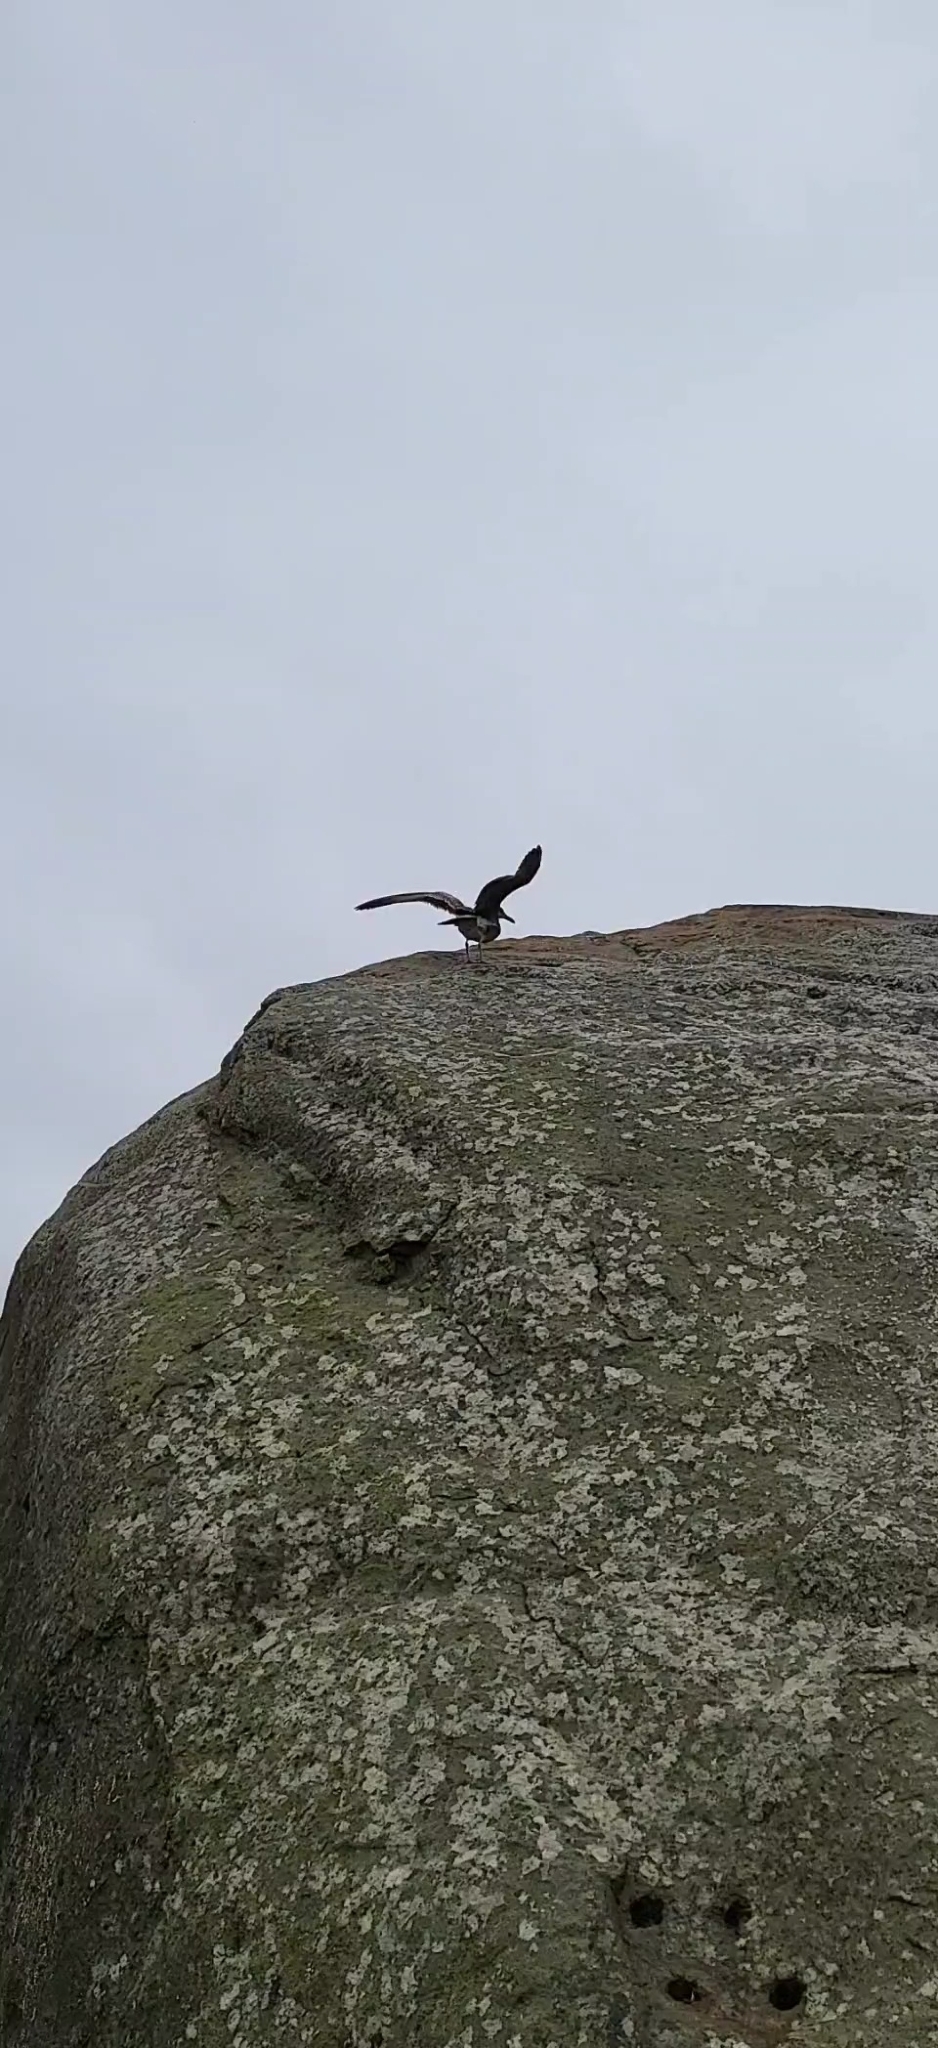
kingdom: Animalia
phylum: Chordata
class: Aves
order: Charadriiformes
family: Laridae
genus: Larus
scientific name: Larus occidentalis
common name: Western gull
